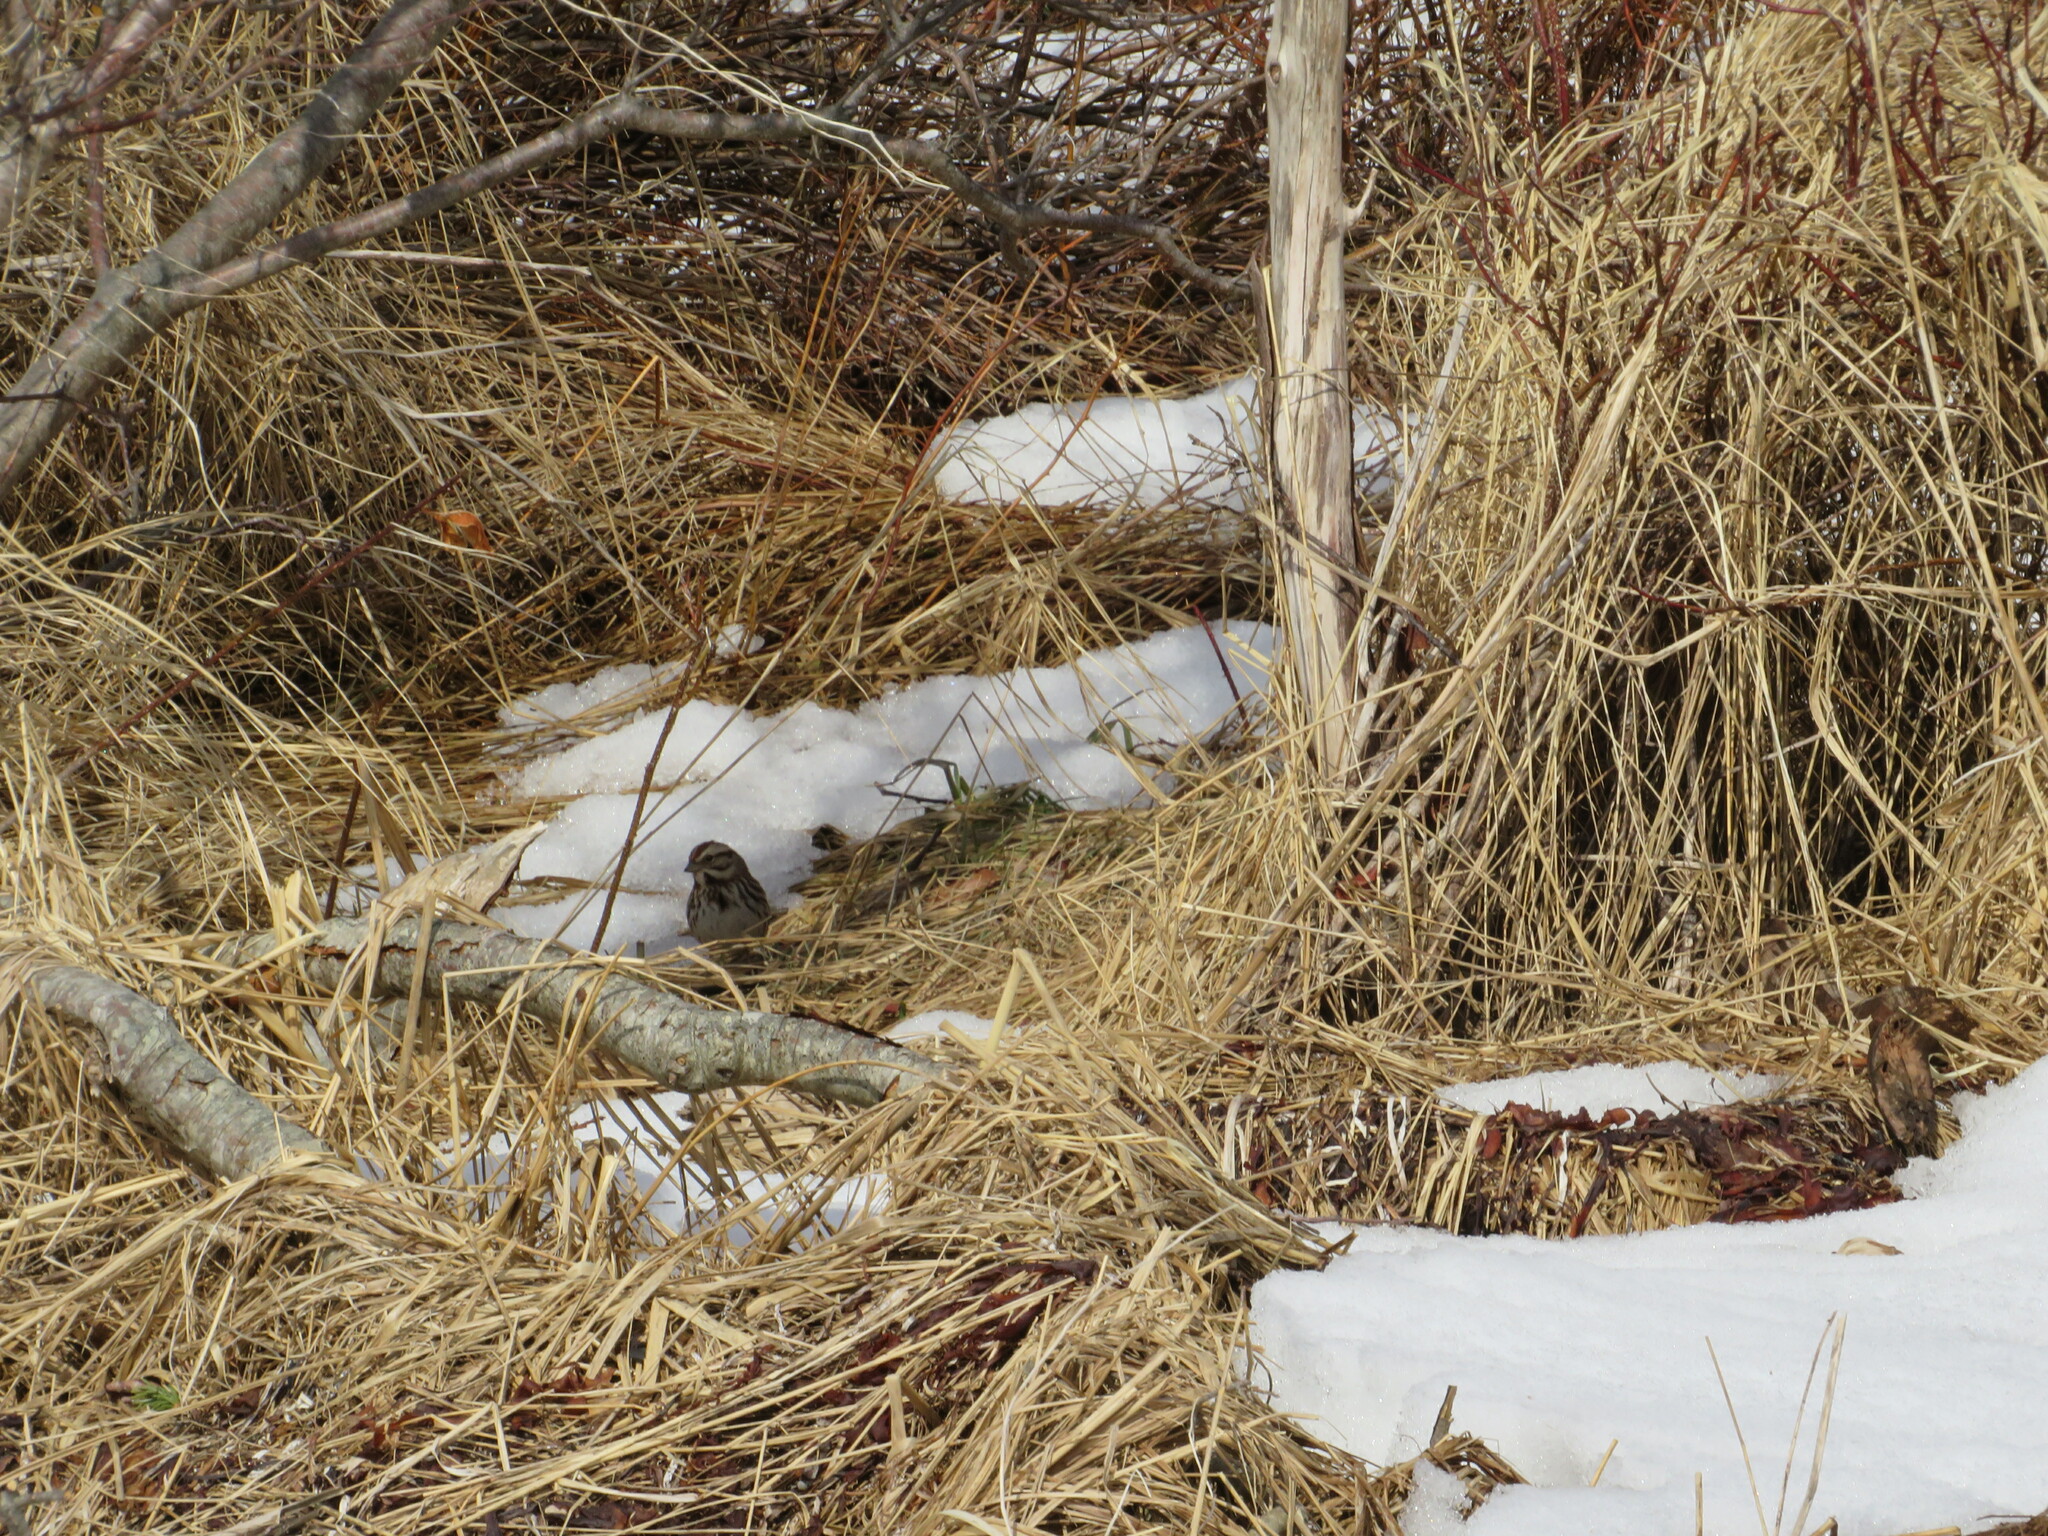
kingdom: Animalia
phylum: Chordata
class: Aves
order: Passeriformes
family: Passerellidae
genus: Melospiza
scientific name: Melospiza melodia
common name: Song sparrow
